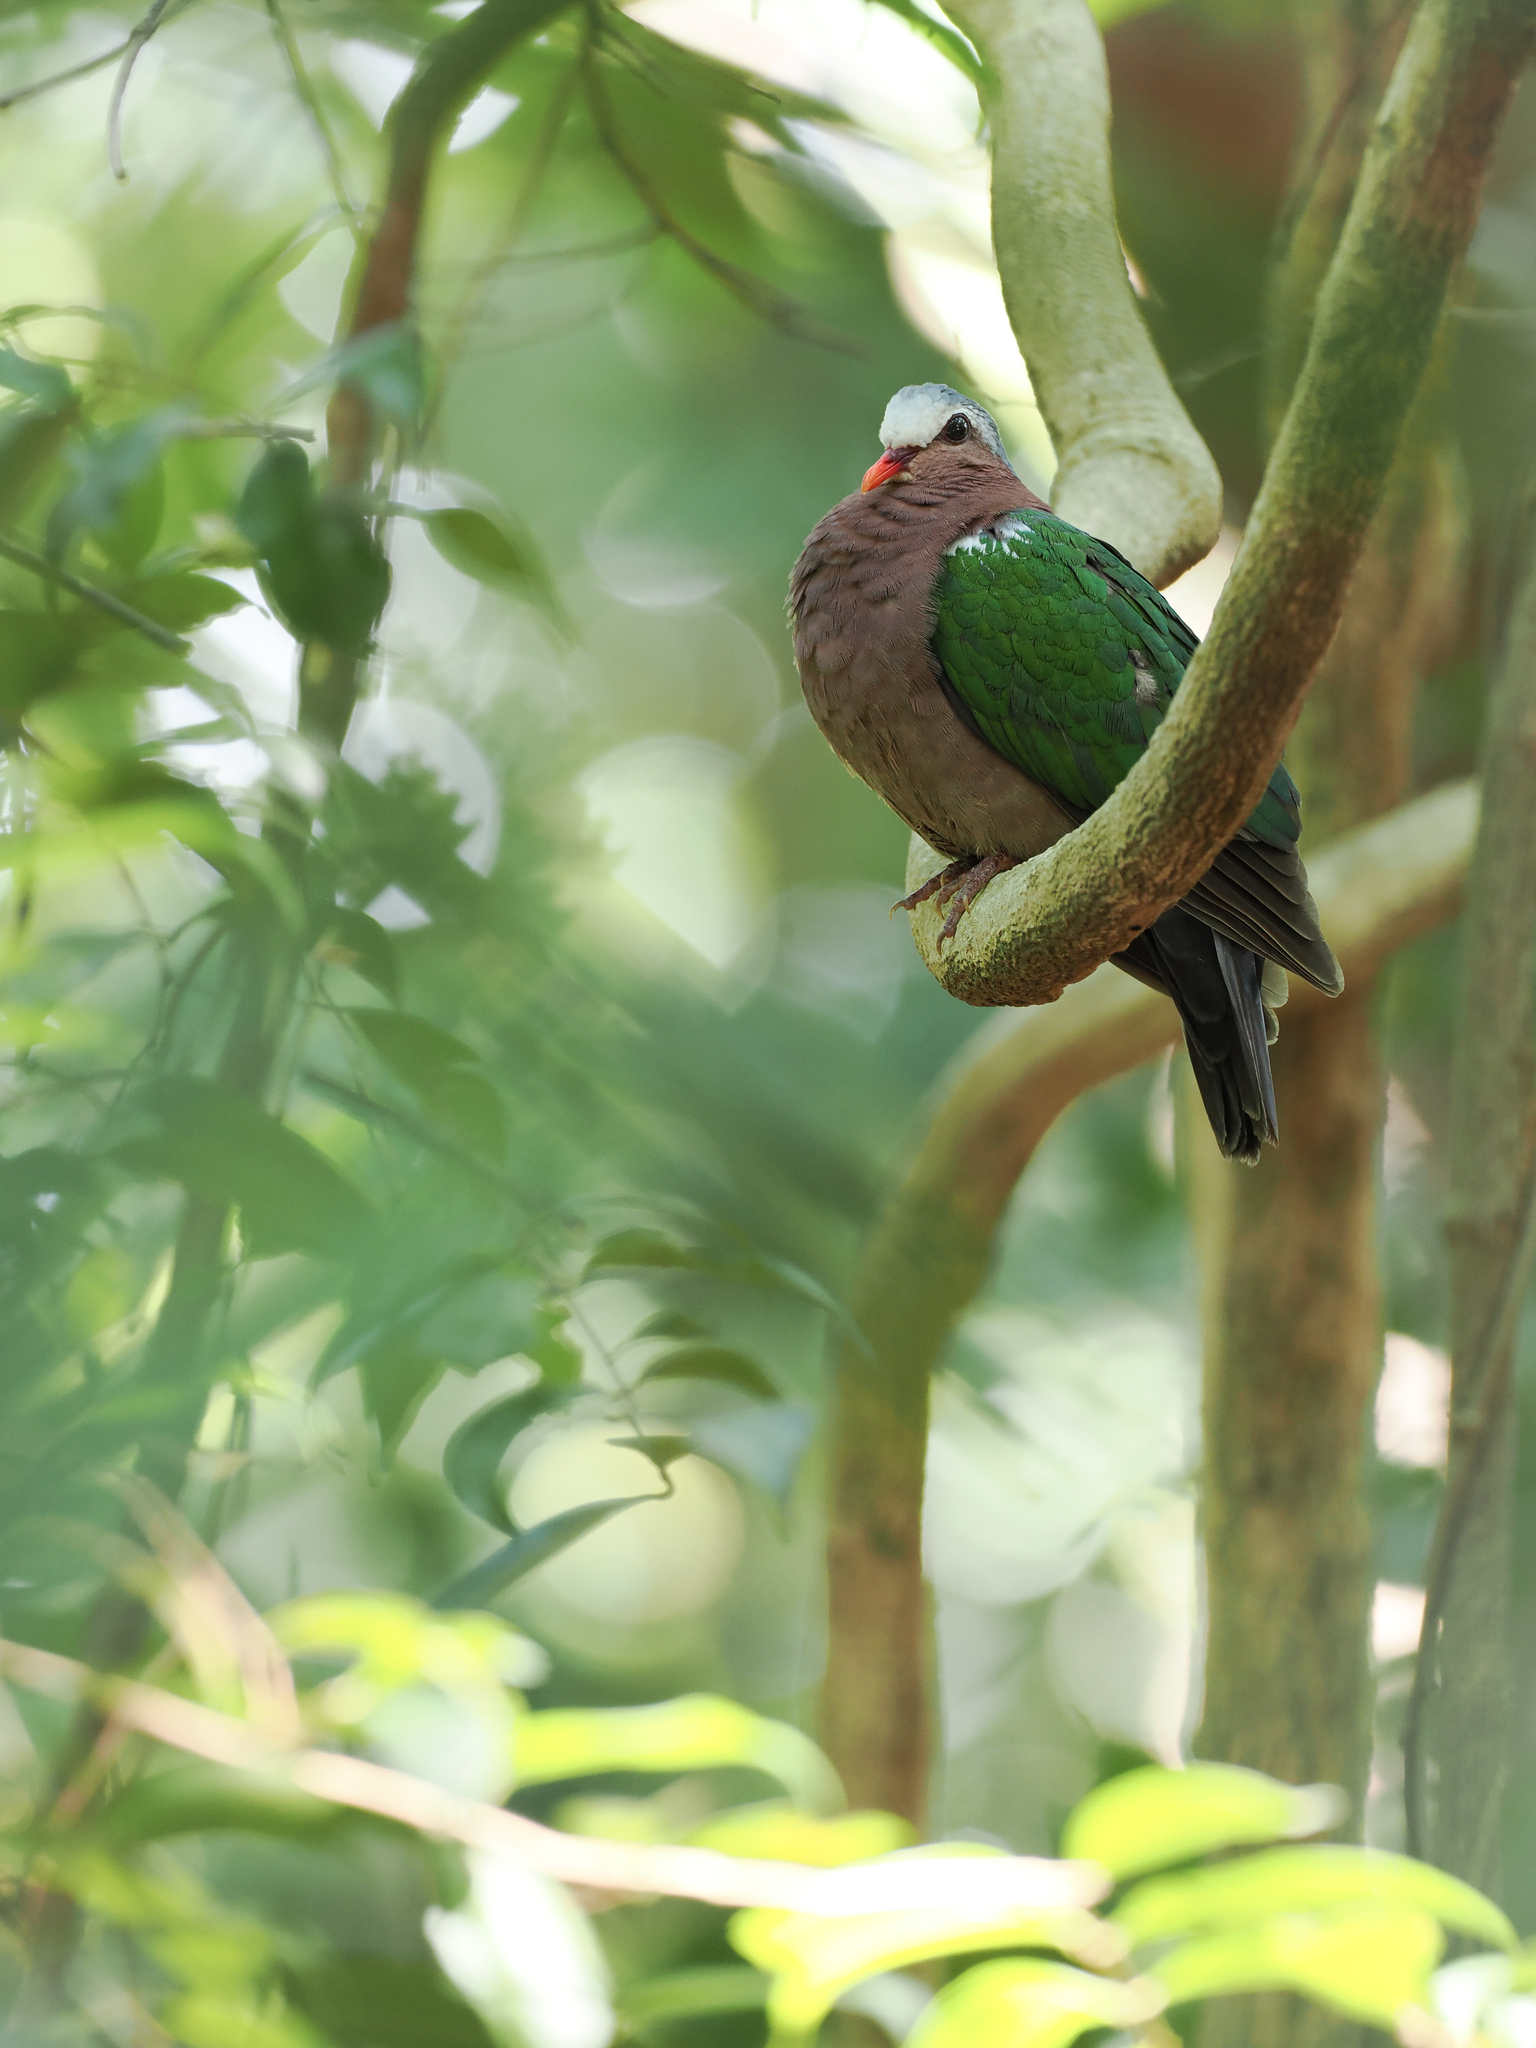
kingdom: Animalia
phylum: Chordata
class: Aves
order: Columbiformes
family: Columbidae
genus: Chalcophaps
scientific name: Chalcophaps indica
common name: Common emerald dove
